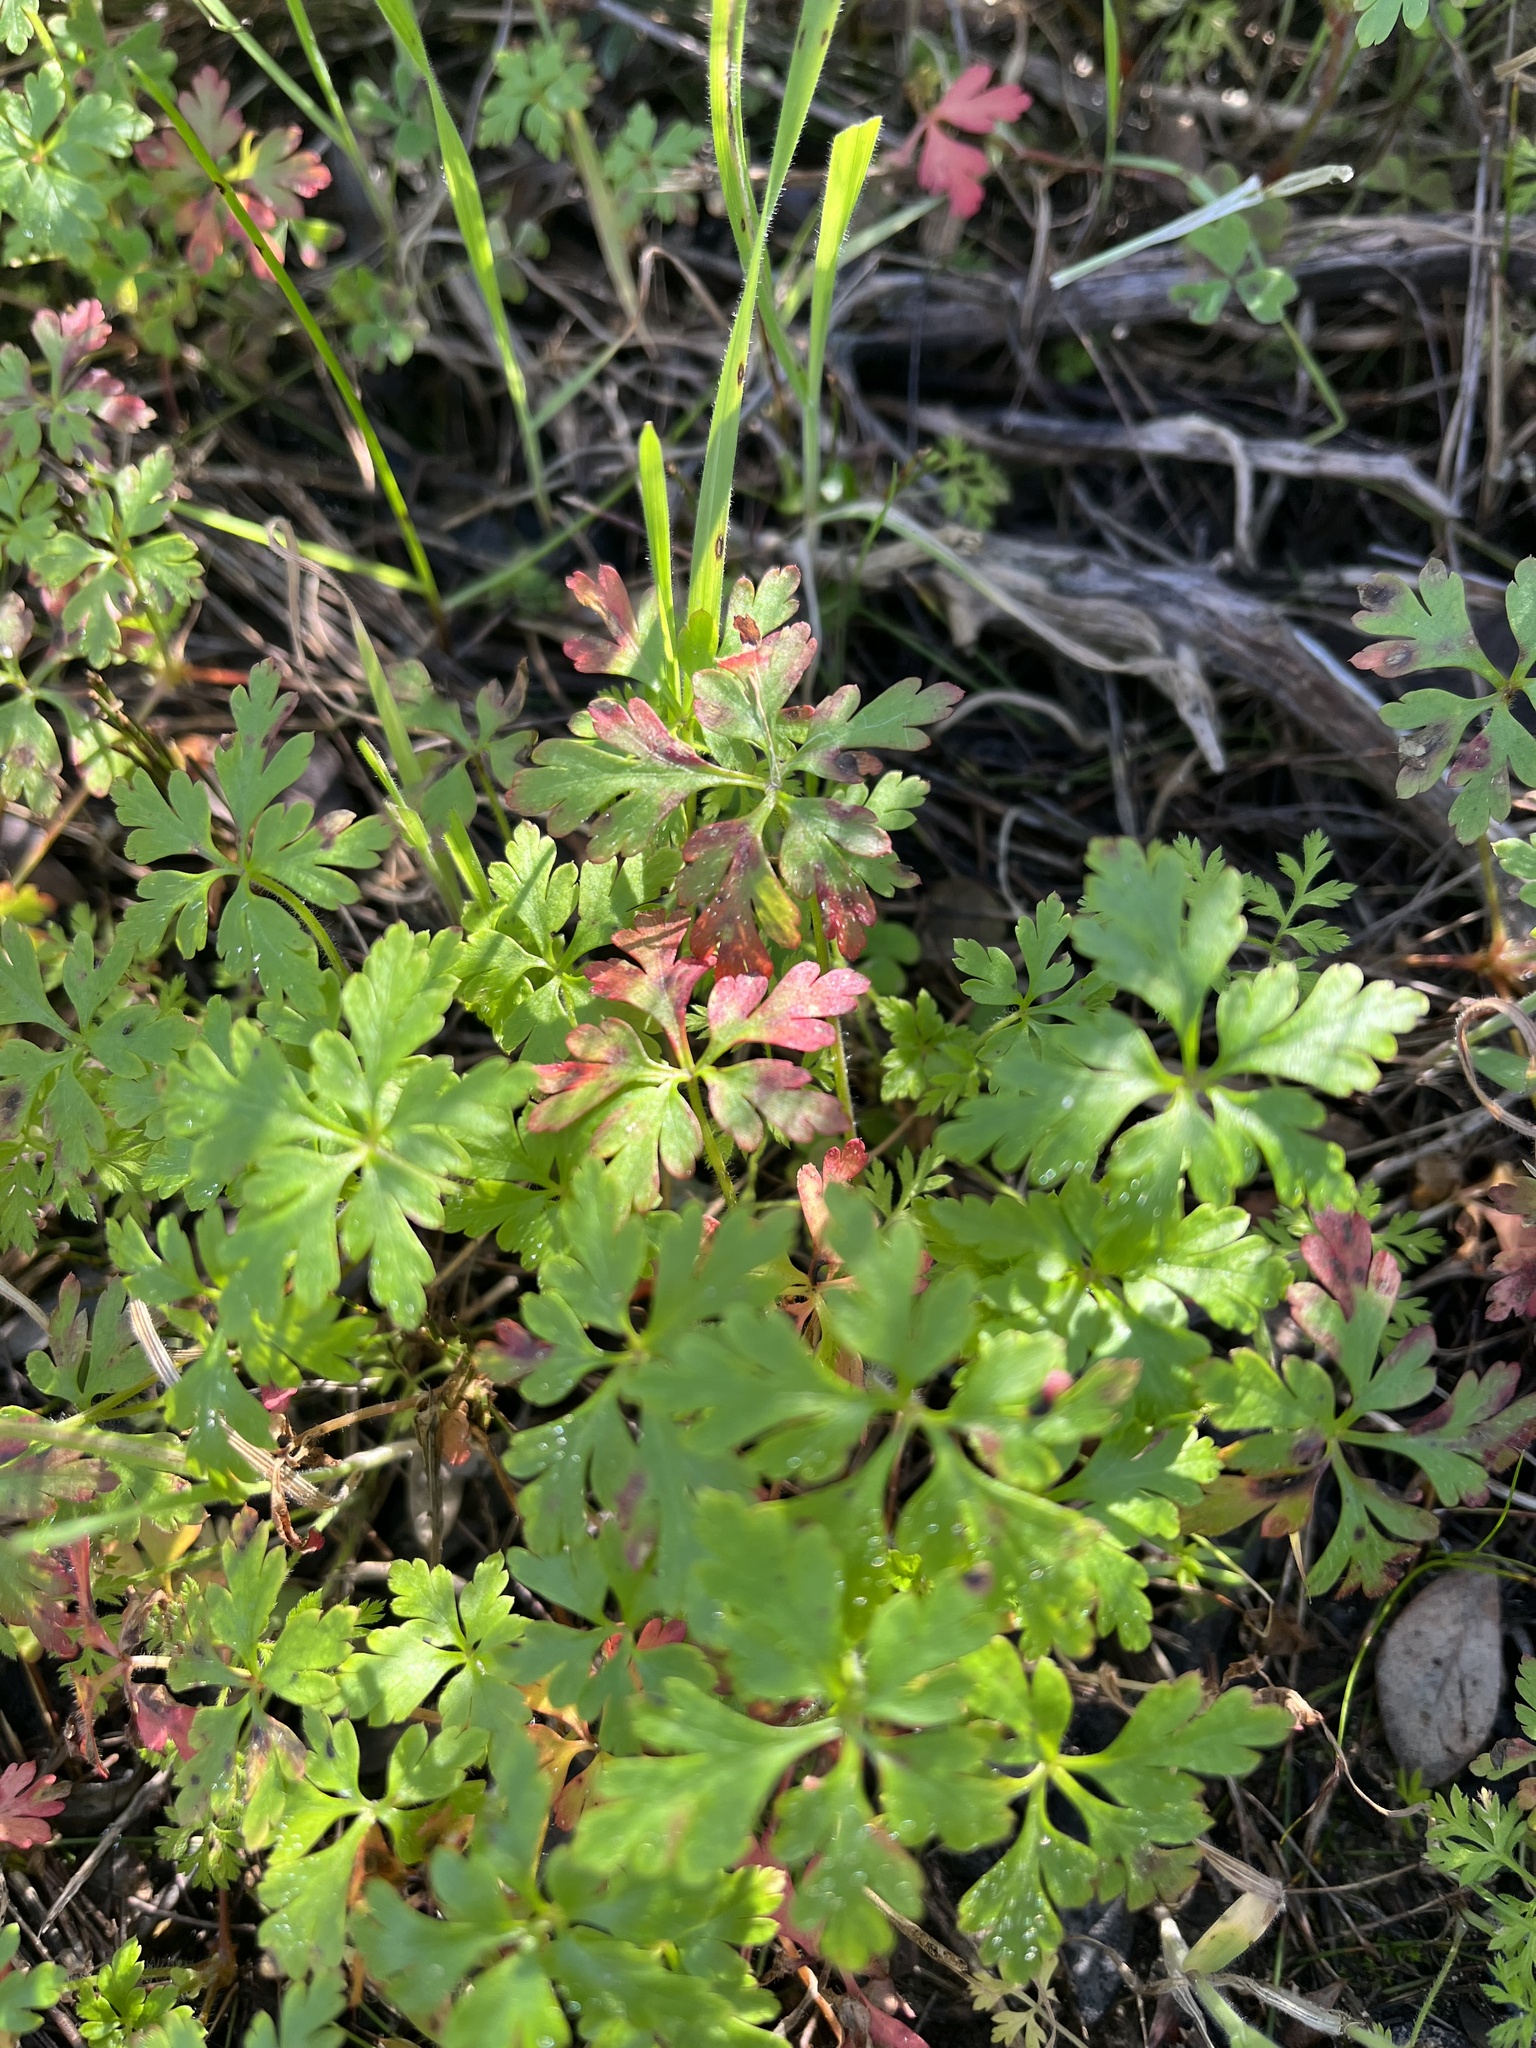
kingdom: Plantae
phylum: Tracheophyta
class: Magnoliopsida
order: Geraniales
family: Geraniaceae
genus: Geranium
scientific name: Geranium purpureum
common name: Little-robin
